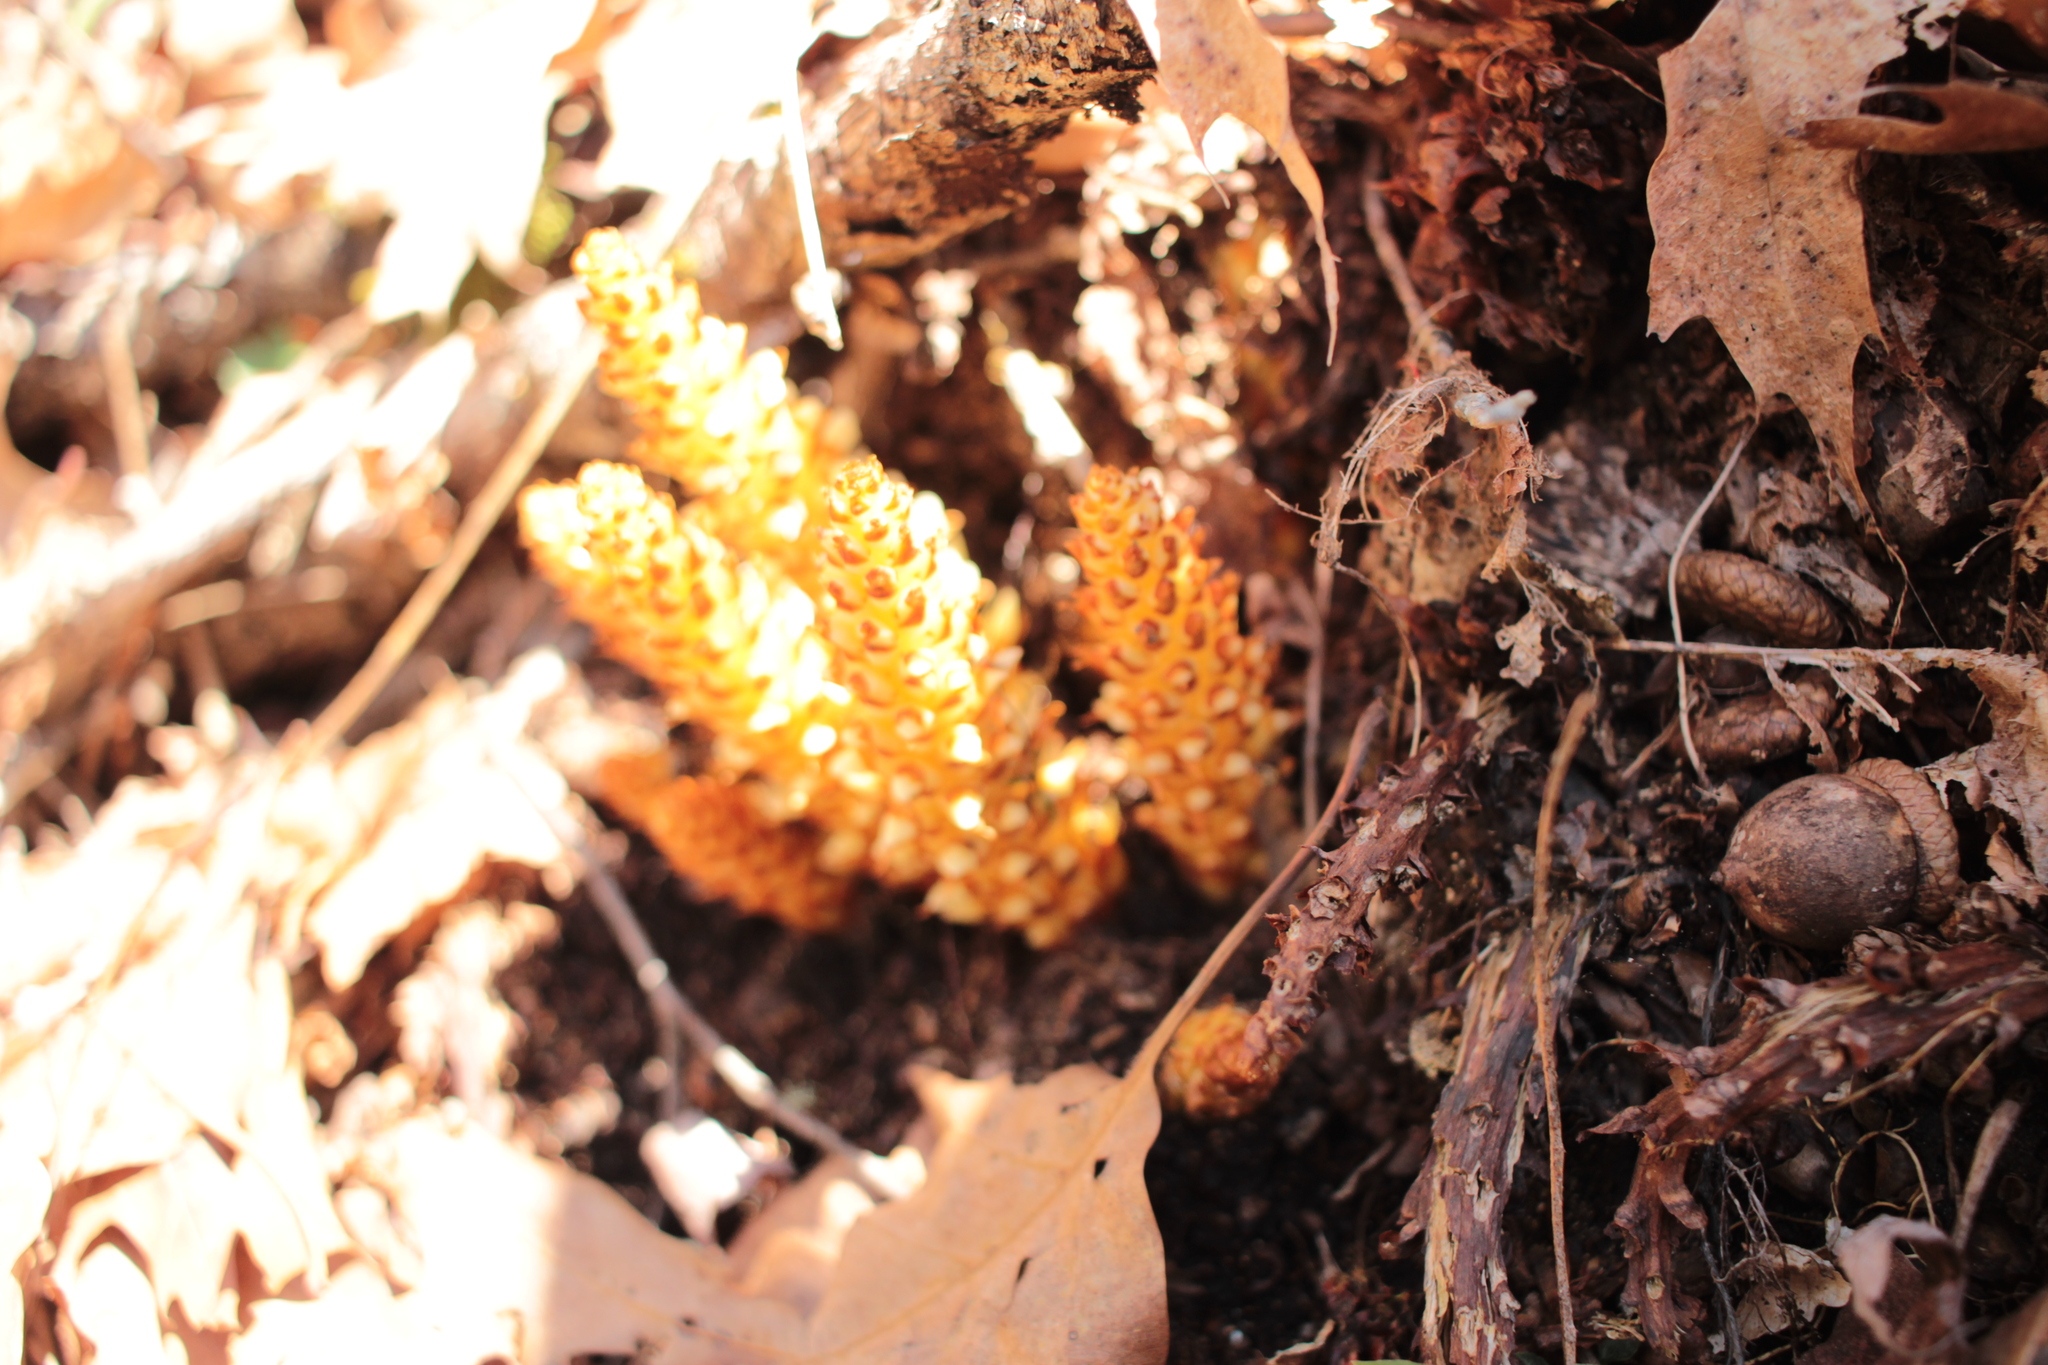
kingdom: Plantae
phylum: Tracheophyta
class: Magnoliopsida
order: Lamiales
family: Orobanchaceae
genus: Conopholis
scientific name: Conopholis americana
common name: American cancer-root
